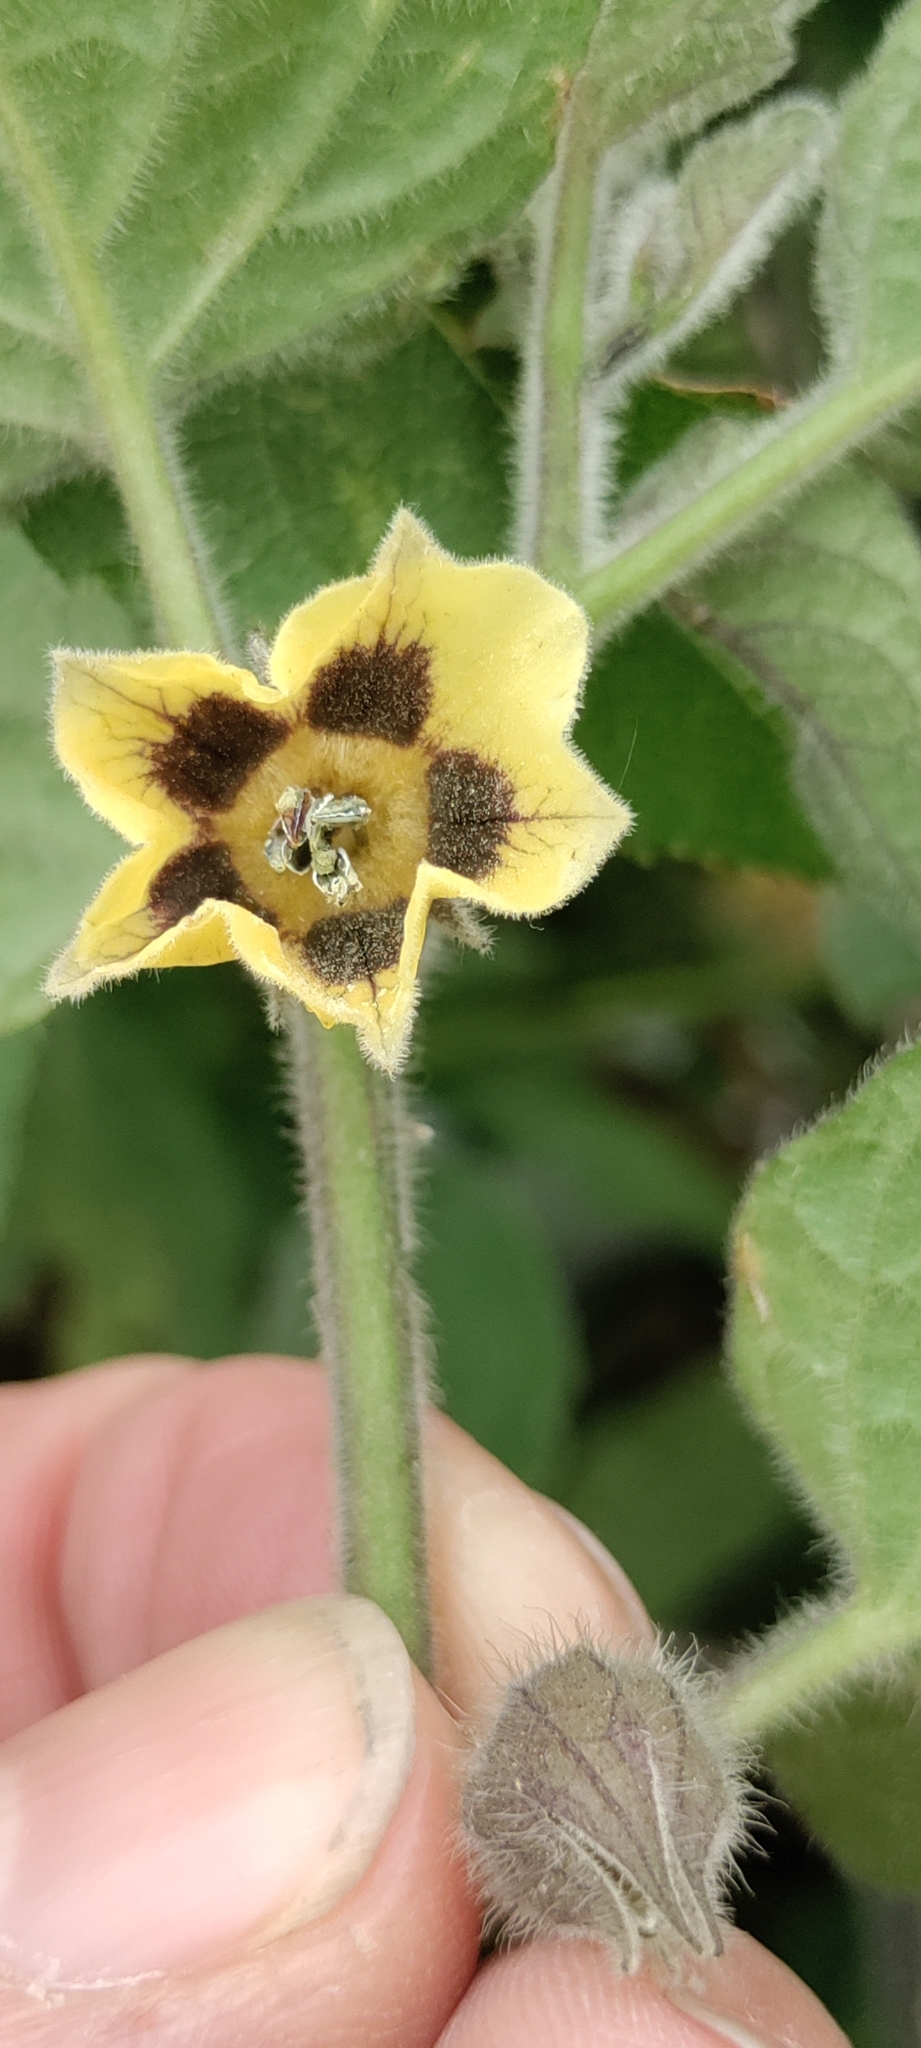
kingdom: Plantae
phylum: Tracheophyta
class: Magnoliopsida
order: Solanales
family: Solanaceae
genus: Physalis
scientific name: Physalis peruviana
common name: Cape-gooseberry
